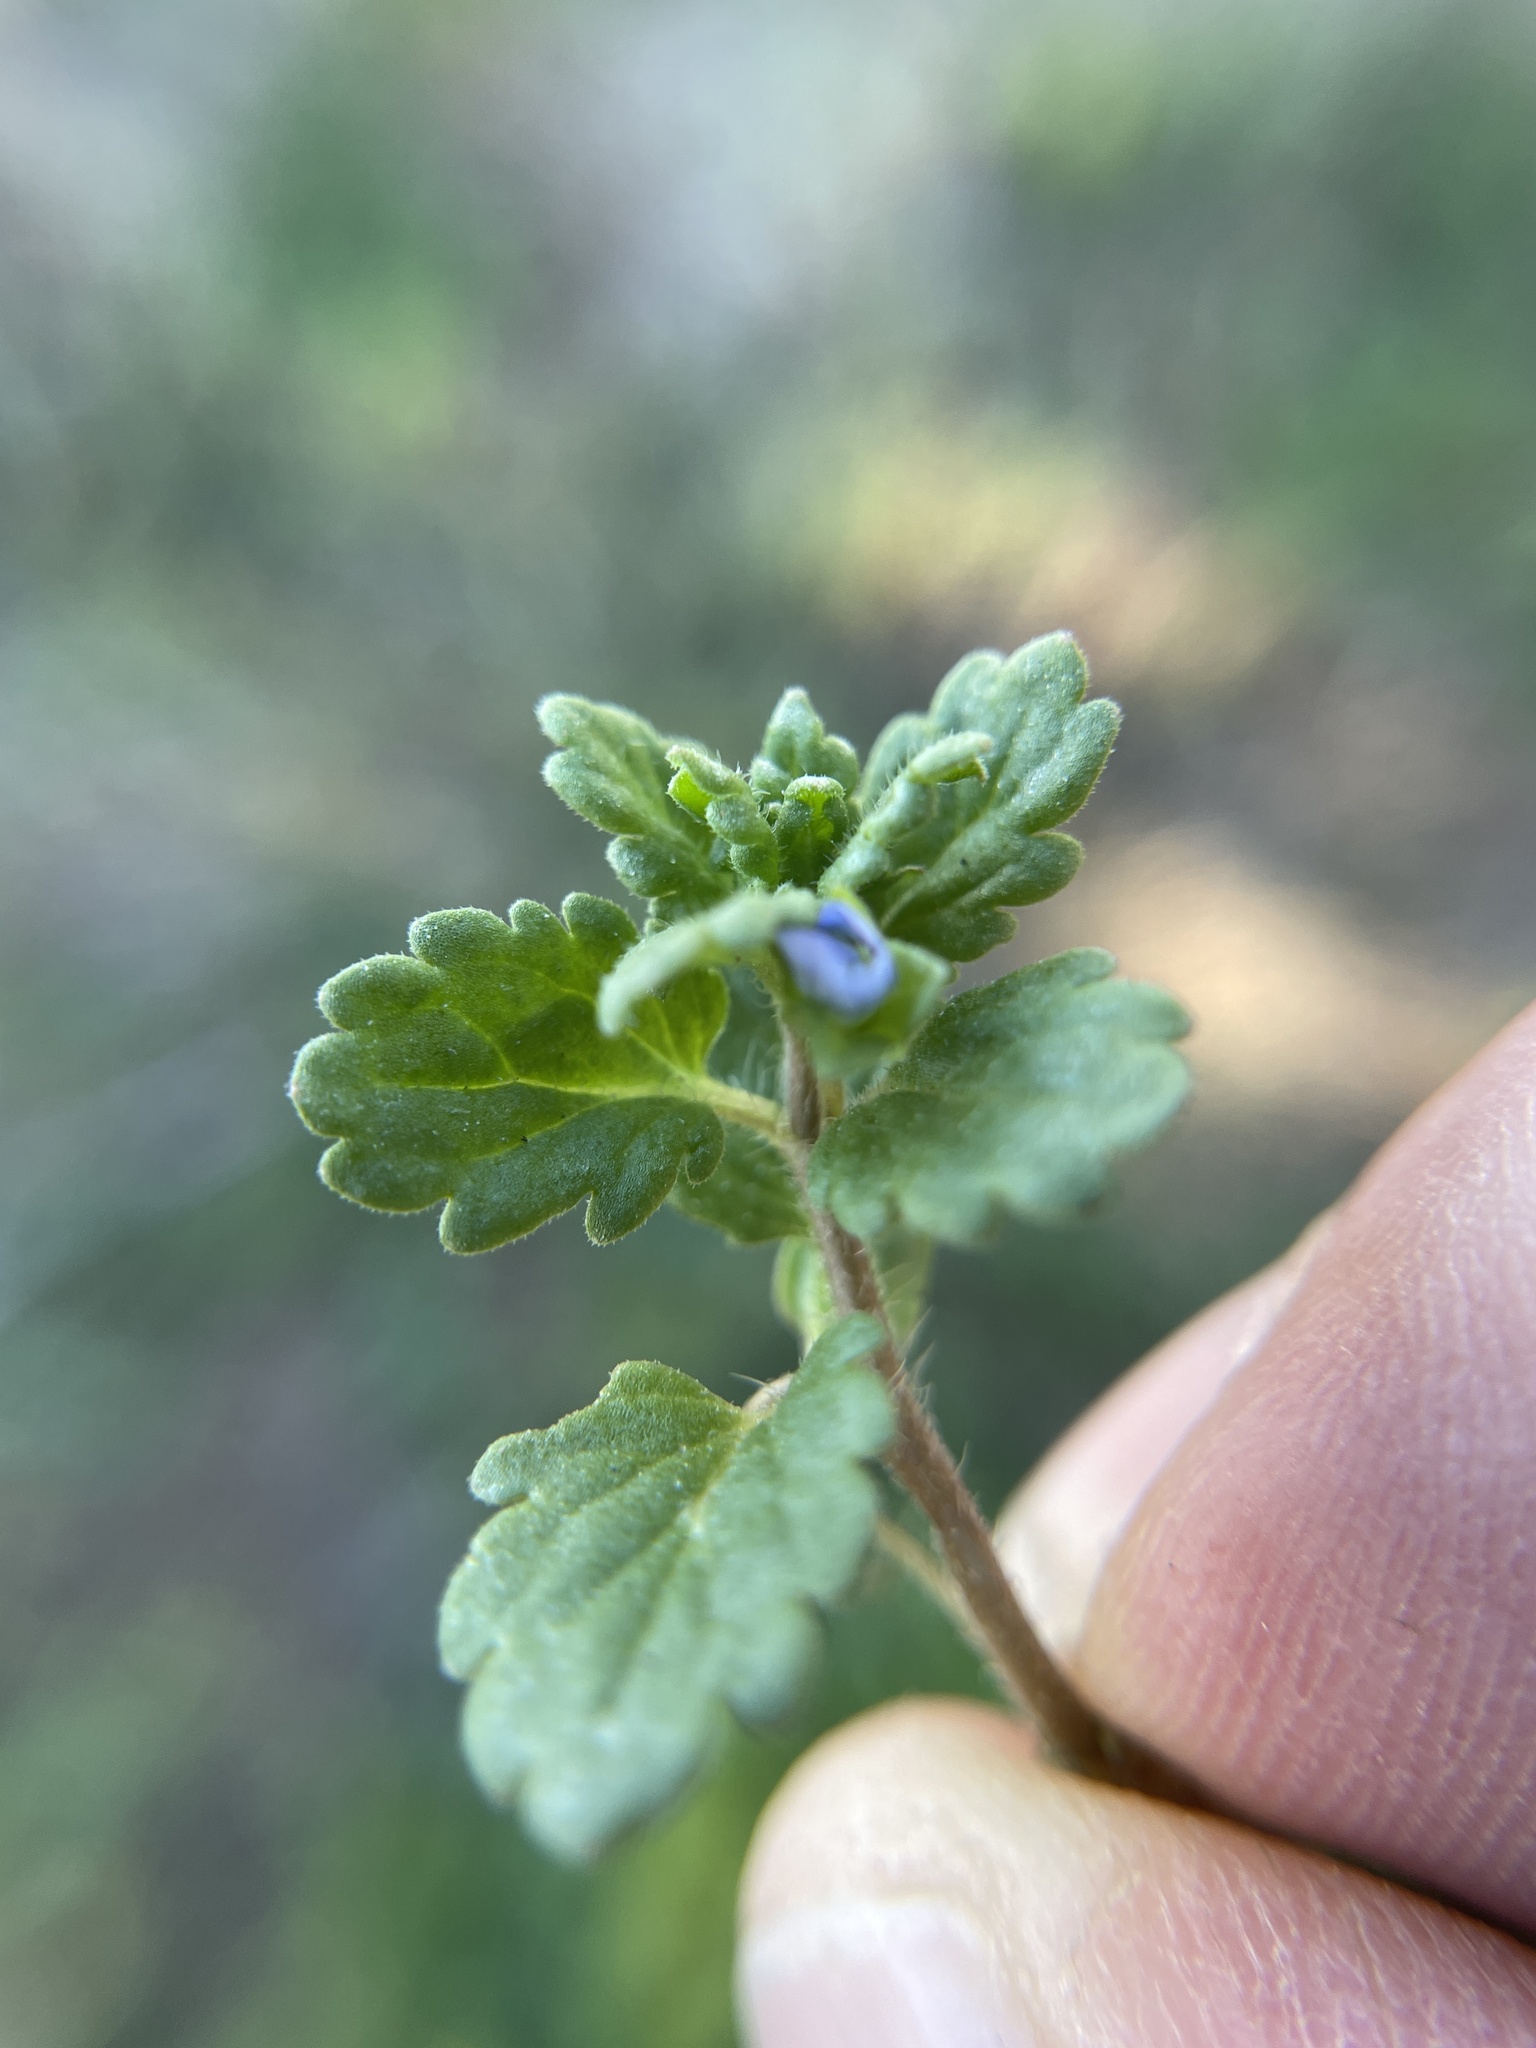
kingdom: Plantae
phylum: Tracheophyta
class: Magnoliopsida
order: Lamiales
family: Plantaginaceae
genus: Veronica
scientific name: Veronica polita
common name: Grey field-speedwell
